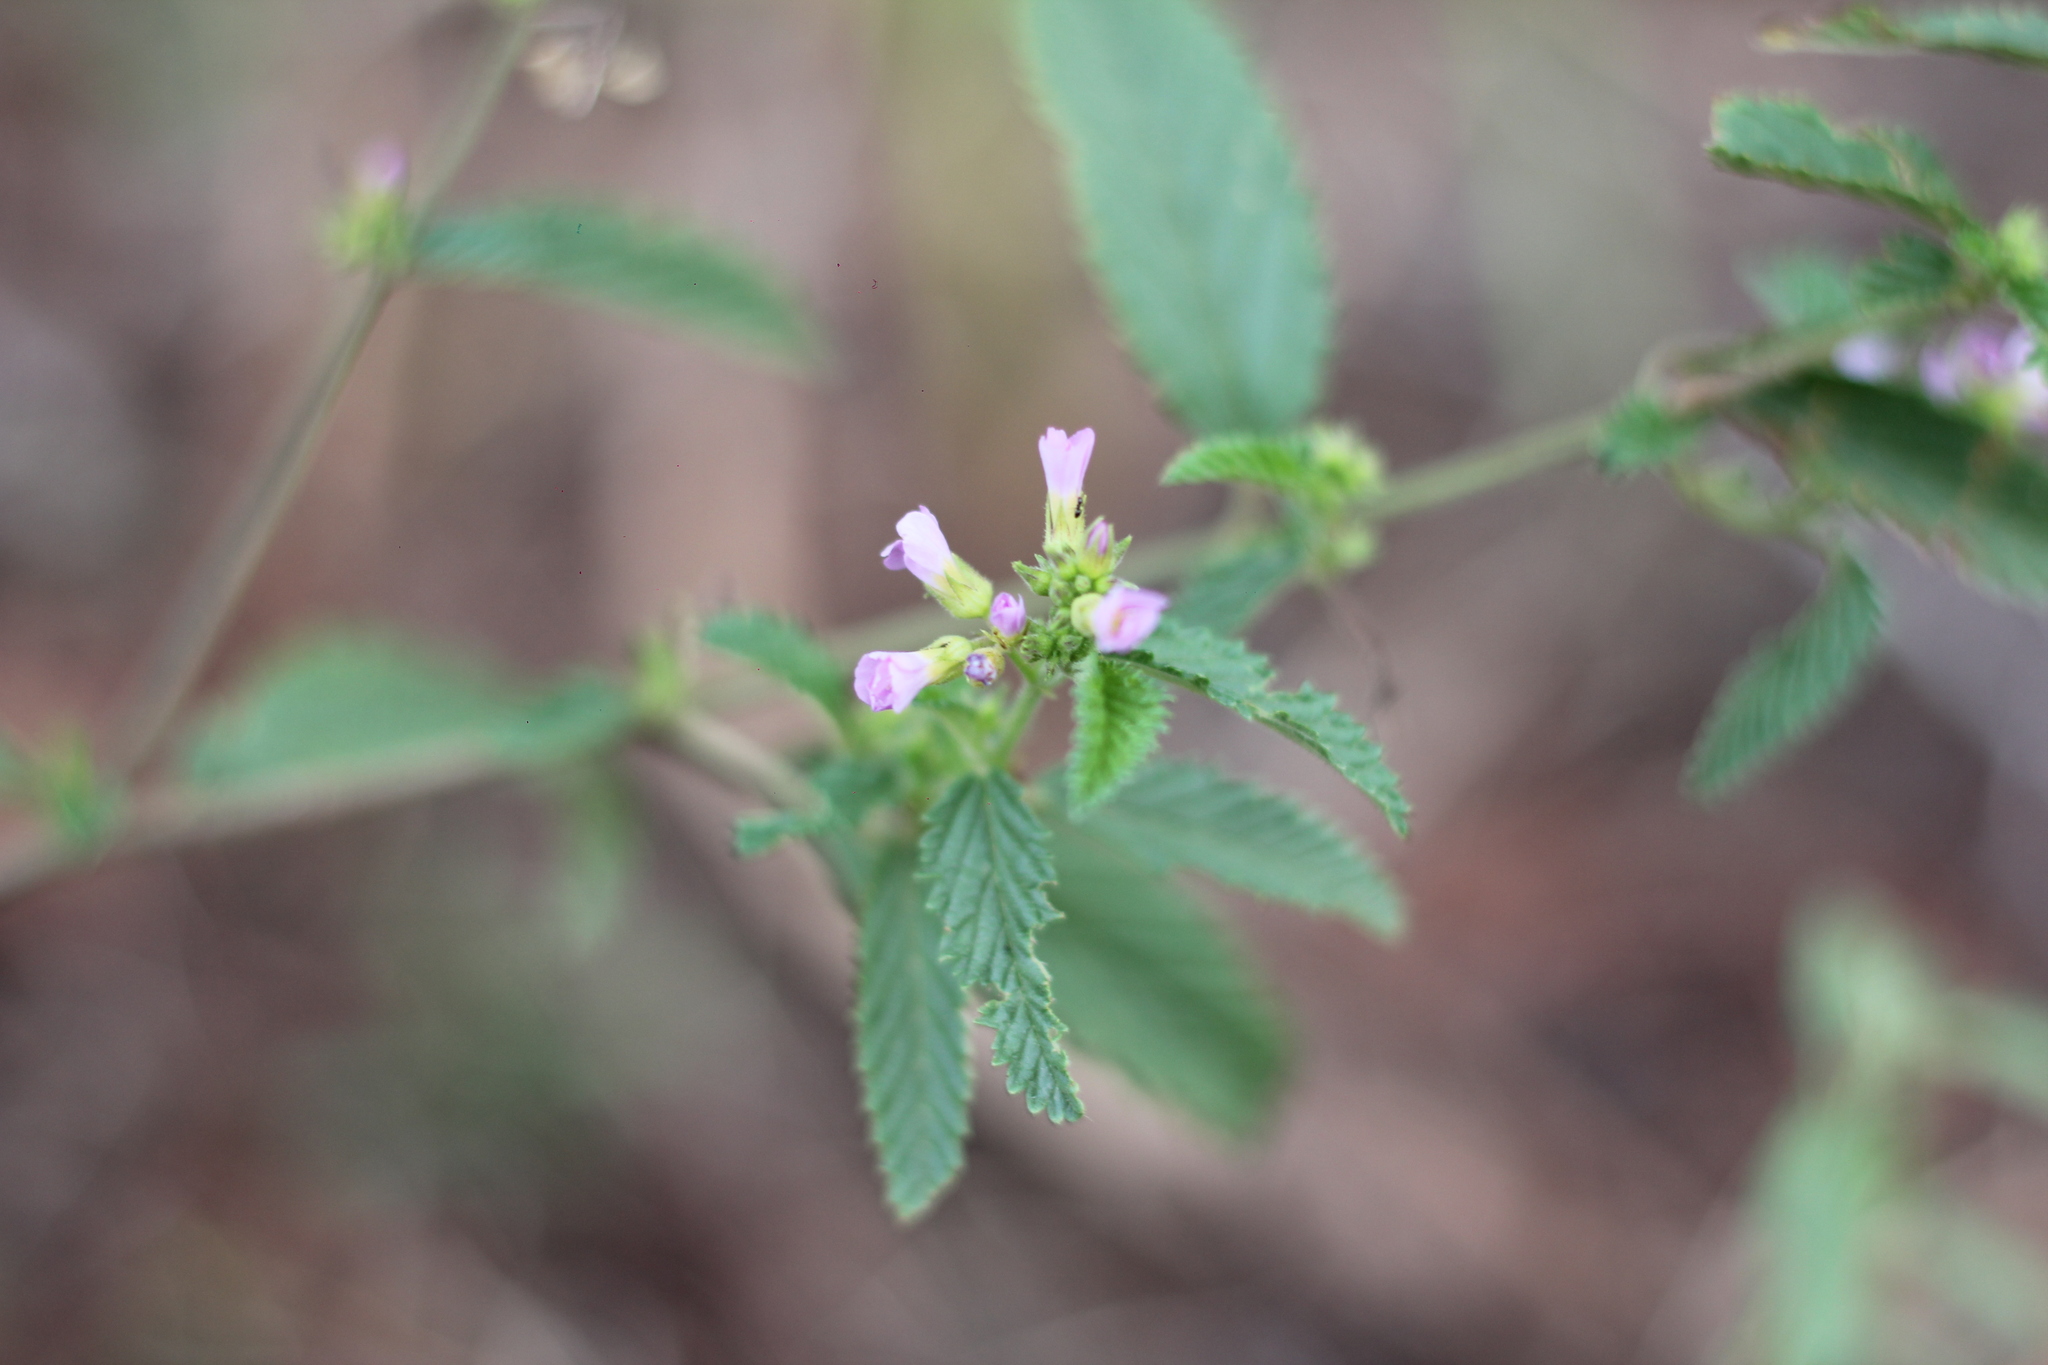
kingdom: Plantae
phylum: Tracheophyta
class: Magnoliopsida
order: Malvales
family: Malvaceae
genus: Melochia
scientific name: Melochia pyramidata
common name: Pyramidflower
